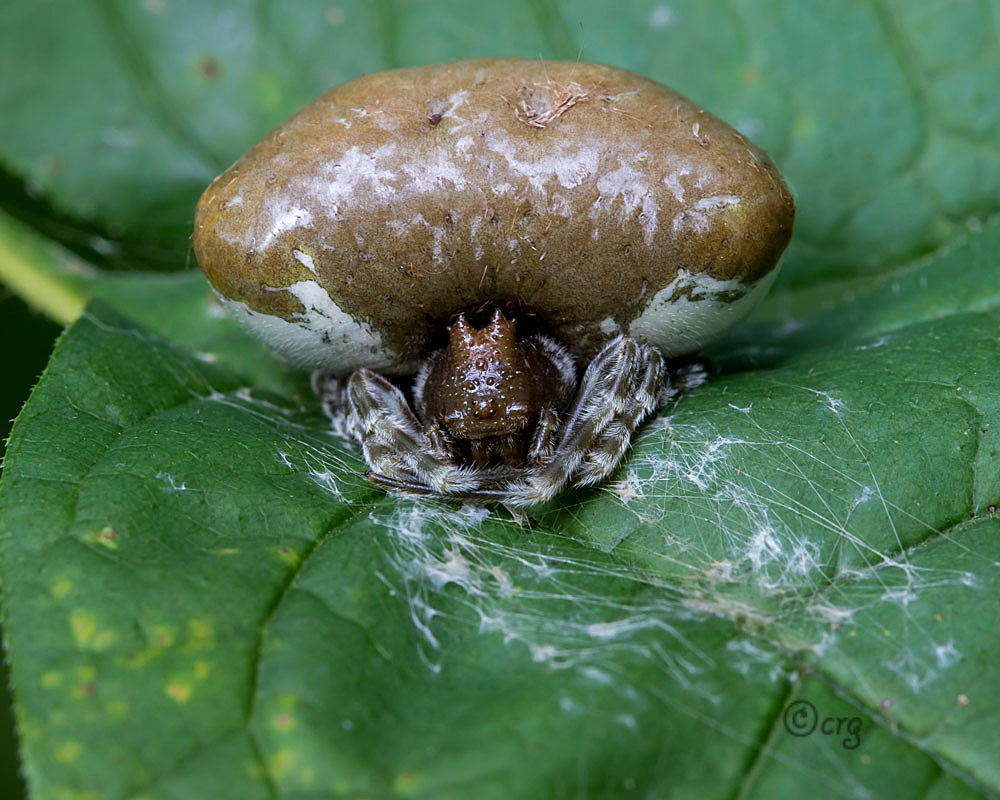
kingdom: Animalia
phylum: Arthropoda
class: Arachnida
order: Araneae
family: Araneidae
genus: Mastophora
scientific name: Mastophora phrynosoma
